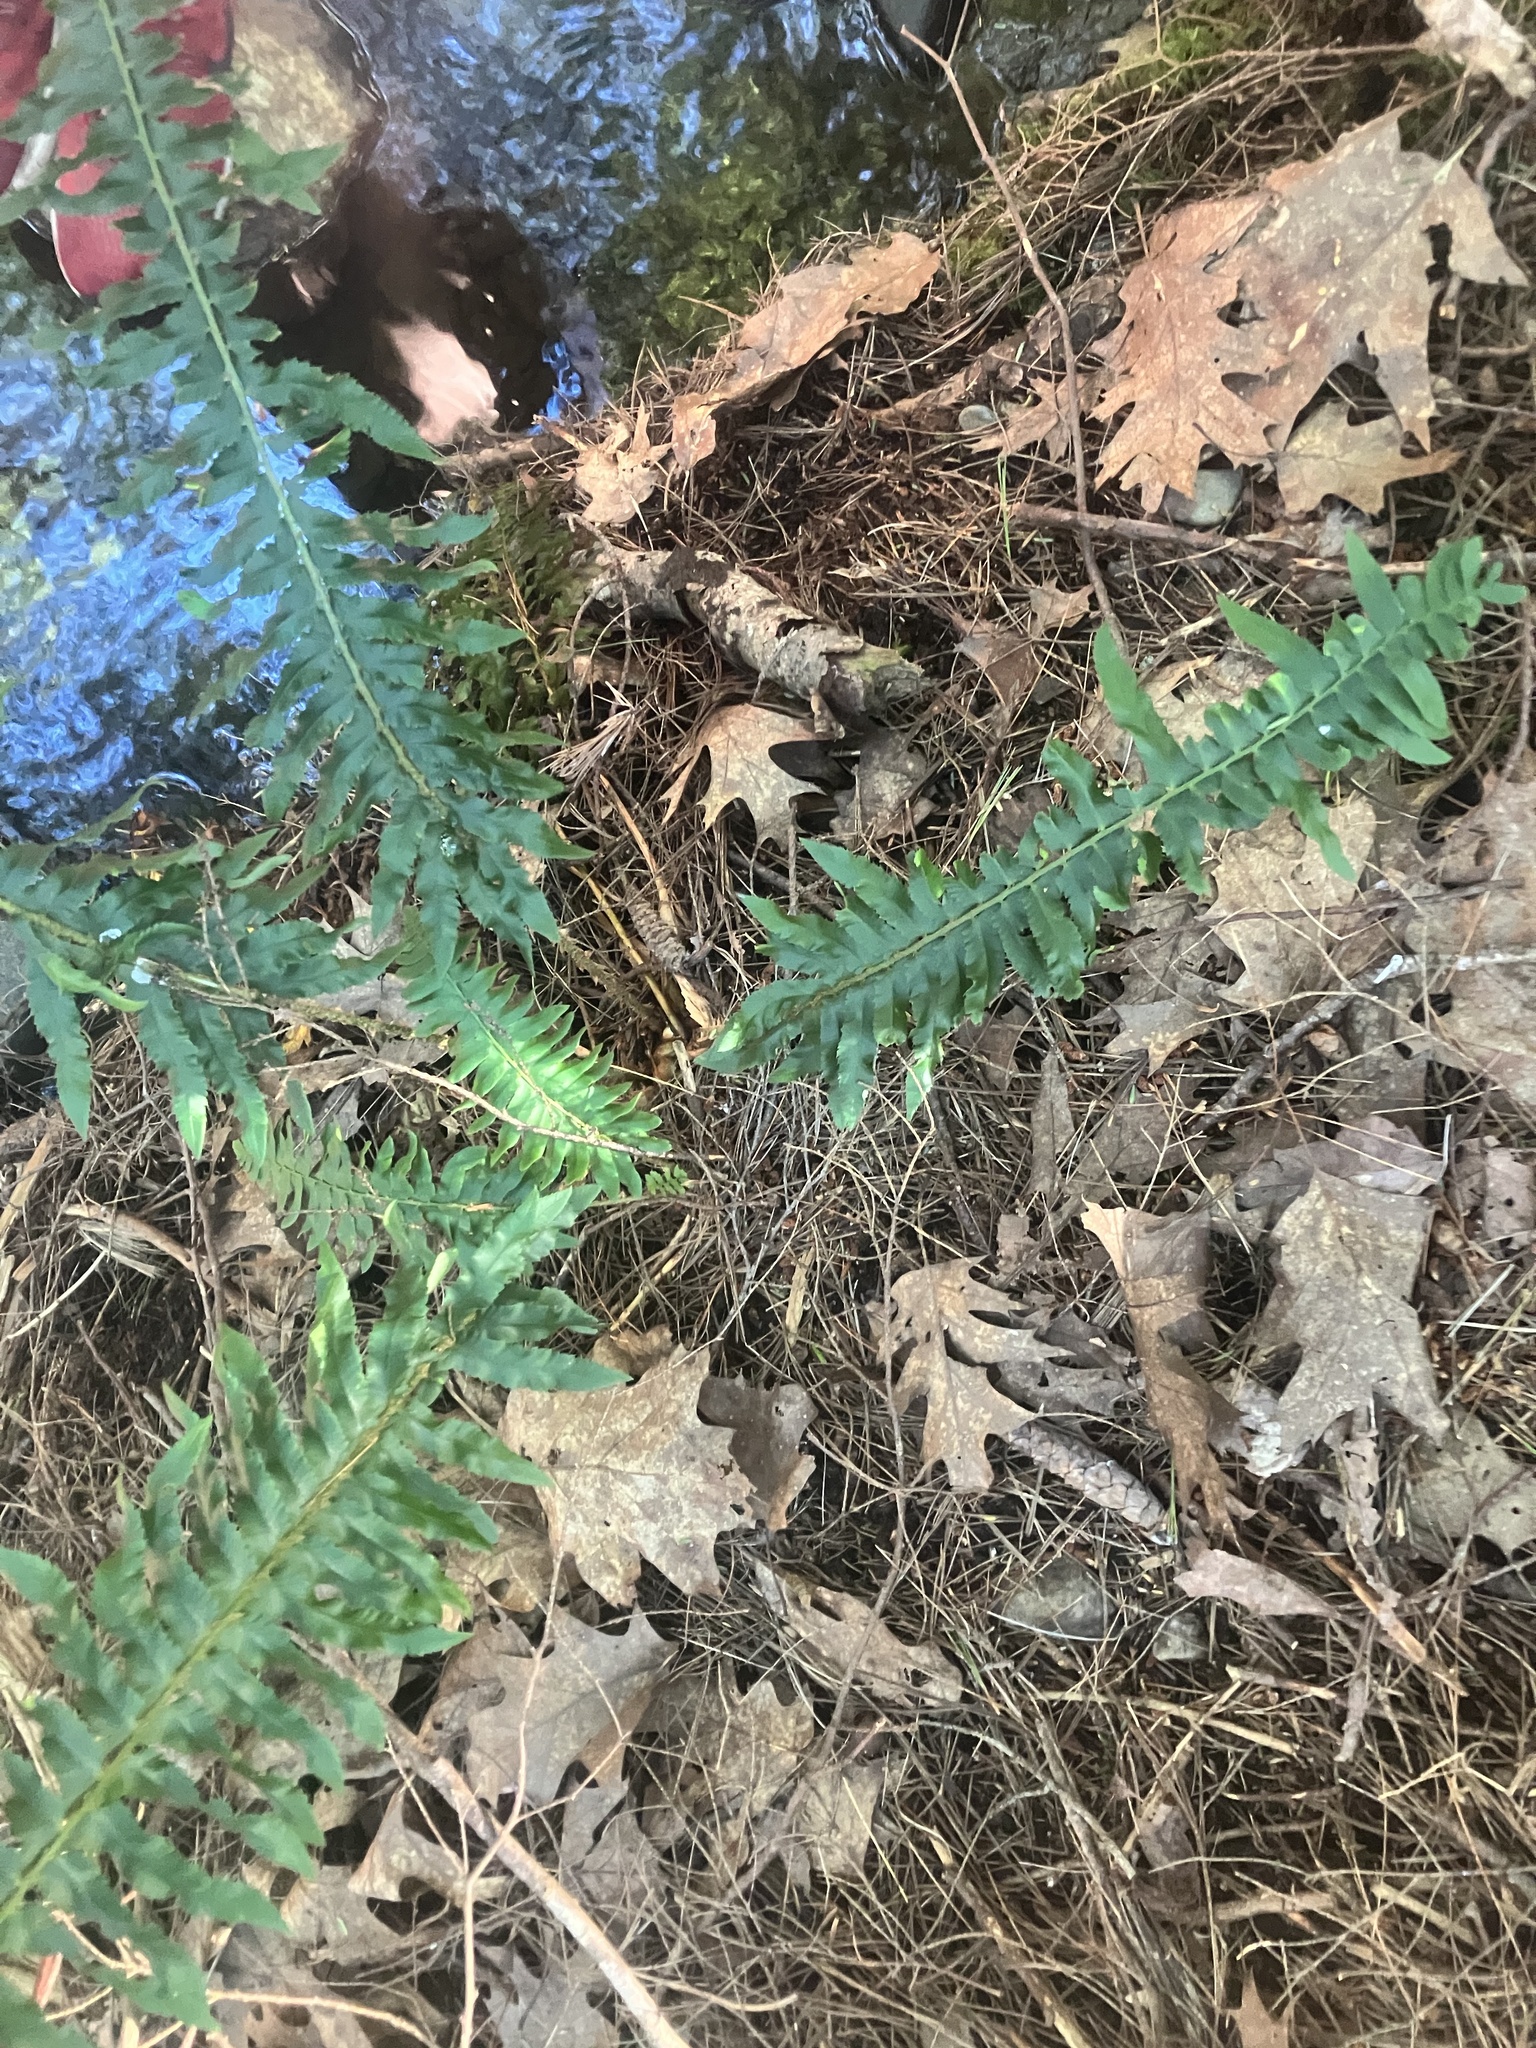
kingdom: Plantae
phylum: Tracheophyta
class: Polypodiopsida
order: Polypodiales
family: Dryopteridaceae
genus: Polystichum
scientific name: Polystichum acrostichoides
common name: Christmas fern
